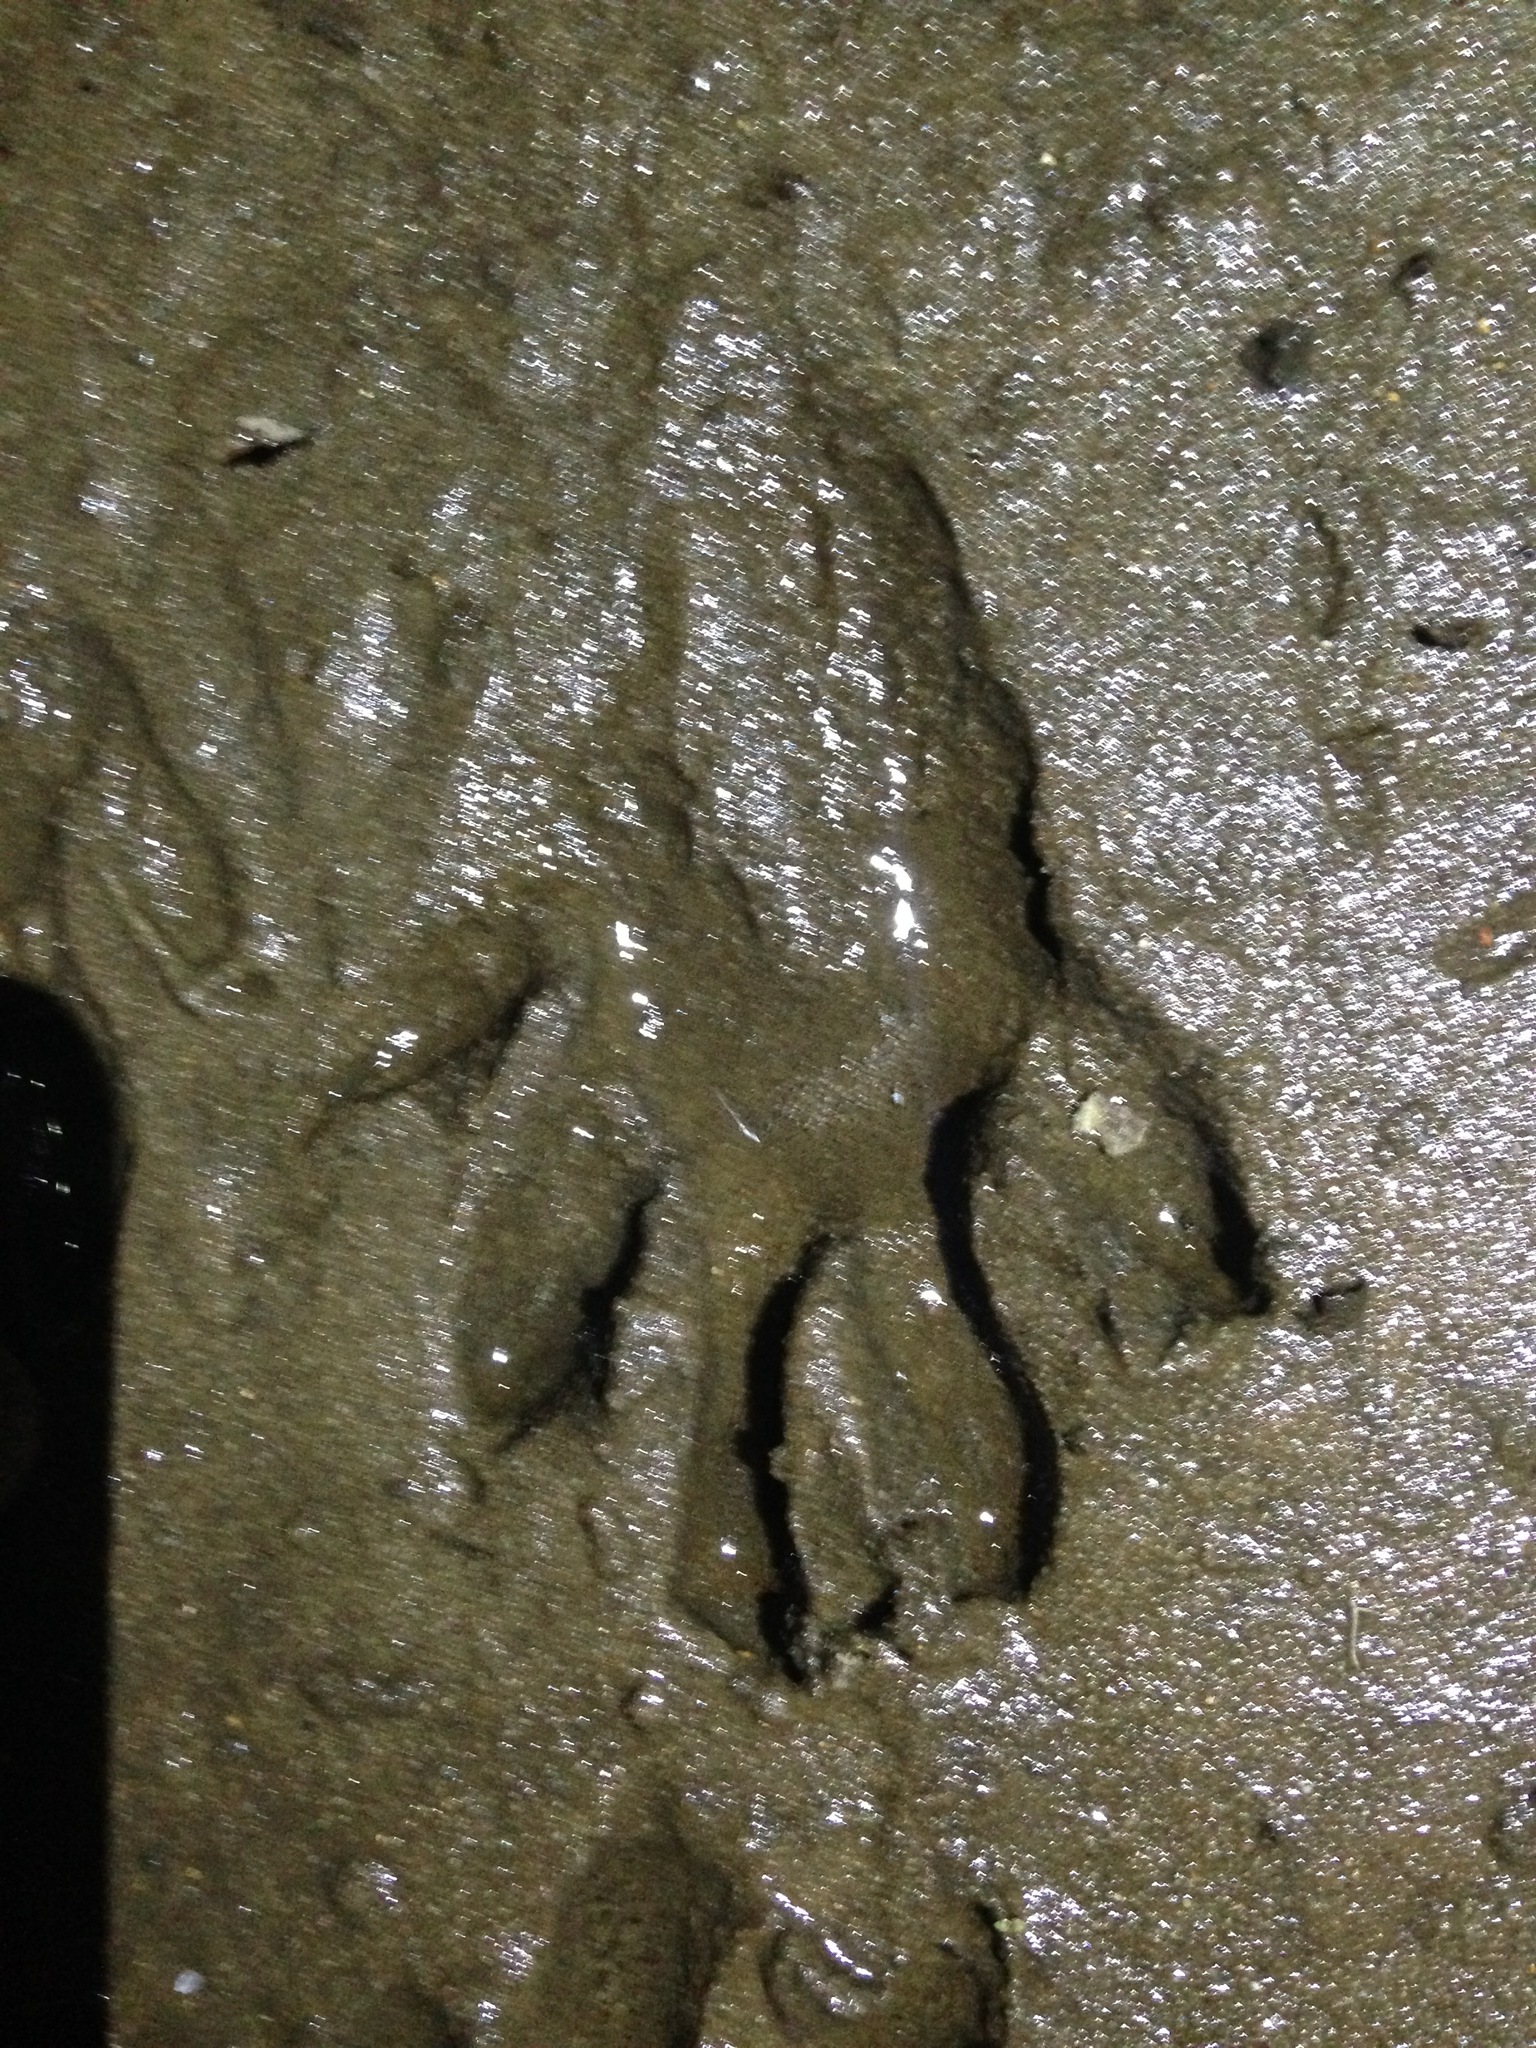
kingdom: Animalia
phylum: Chordata
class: Mammalia
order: Carnivora
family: Procyonidae
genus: Procyon
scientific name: Procyon cancrivorus
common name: Crab-eating raccoon
